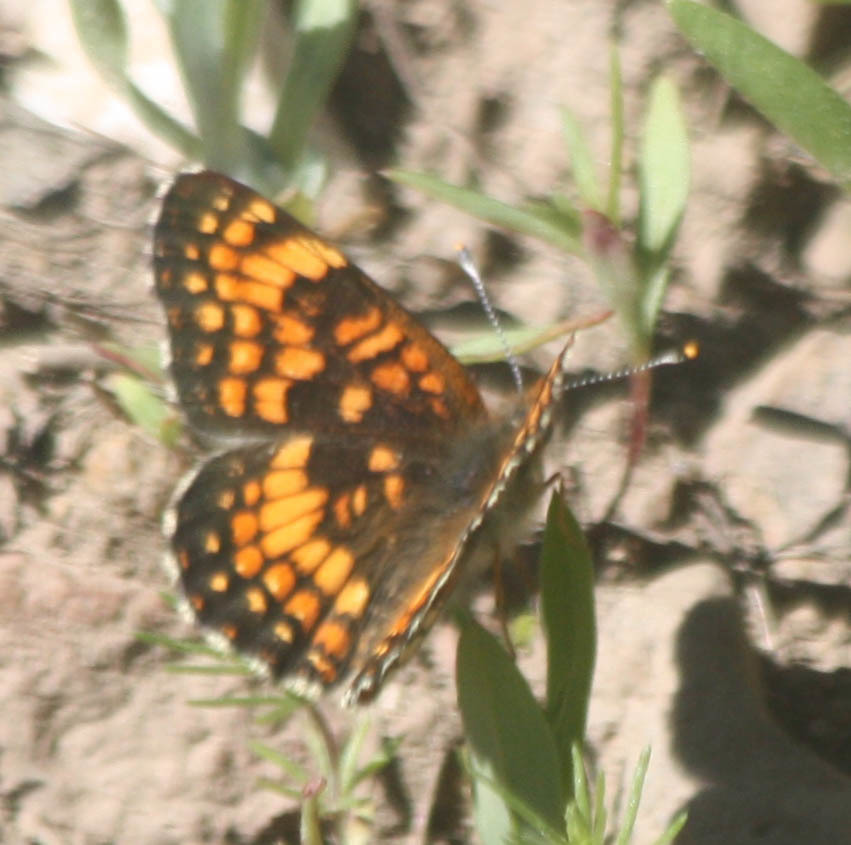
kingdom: Animalia
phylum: Arthropoda
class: Insecta
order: Lepidoptera
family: Nymphalidae
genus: Chlosyne
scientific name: Chlosyne palla
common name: Northern checkerspot
